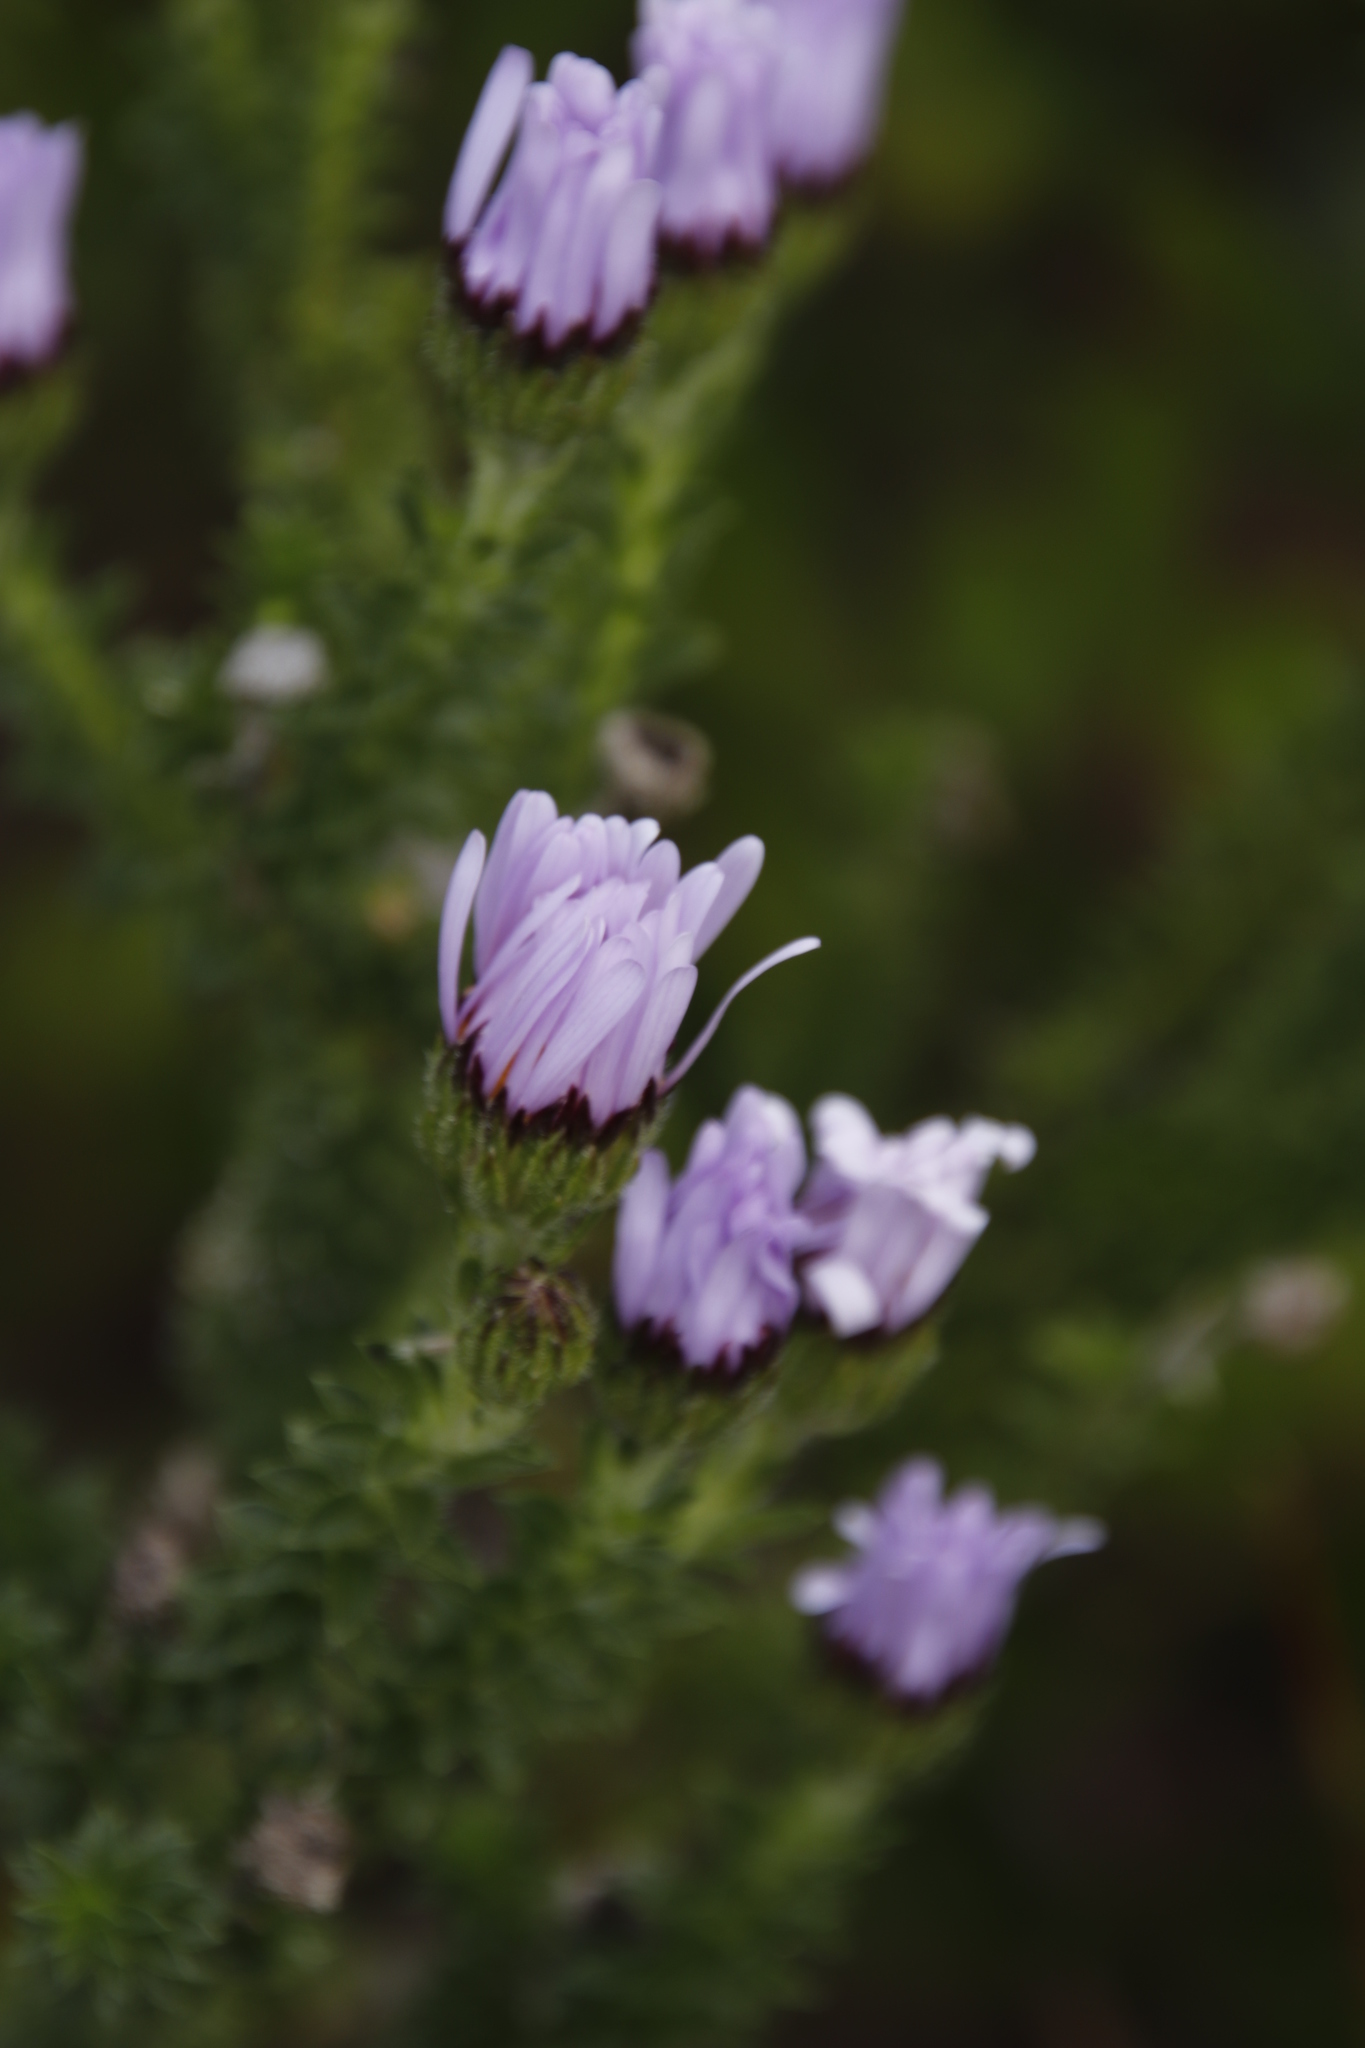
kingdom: Plantae
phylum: Tracheophyta
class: Magnoliopsida
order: Asterales
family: Asteraceae
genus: Felicia
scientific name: Felicia echinata
